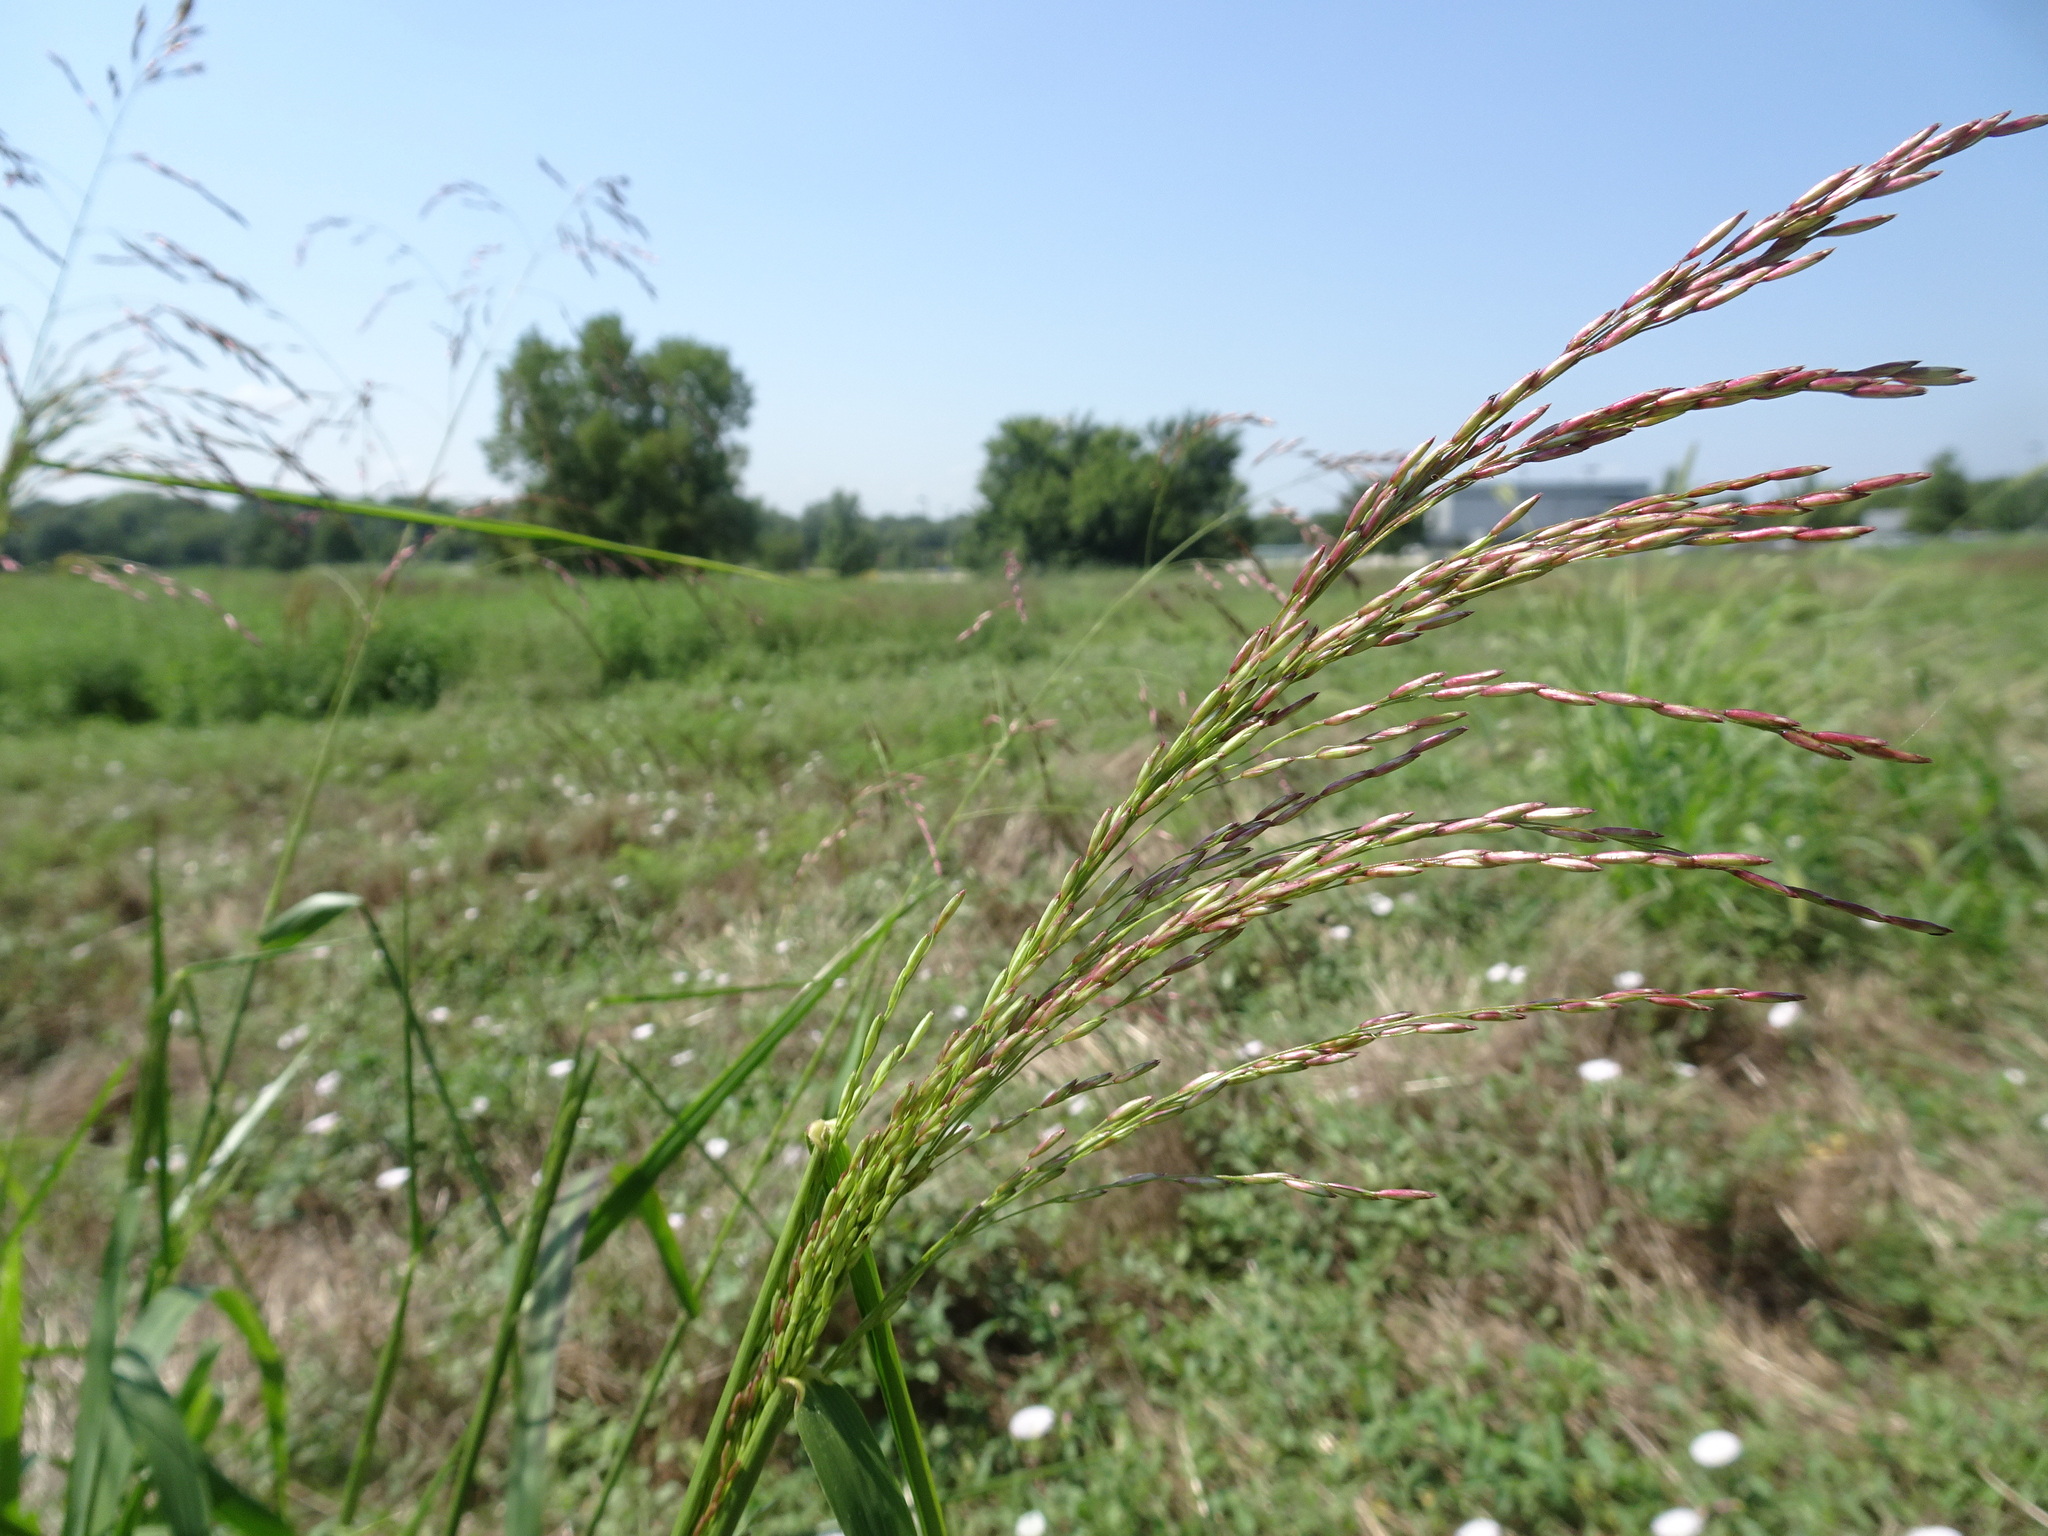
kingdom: Plantae
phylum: Tracheophyta
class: Liliopsida
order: Poales
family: Poaceae
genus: Tridens
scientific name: Tridens flavus
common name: Purpletop
